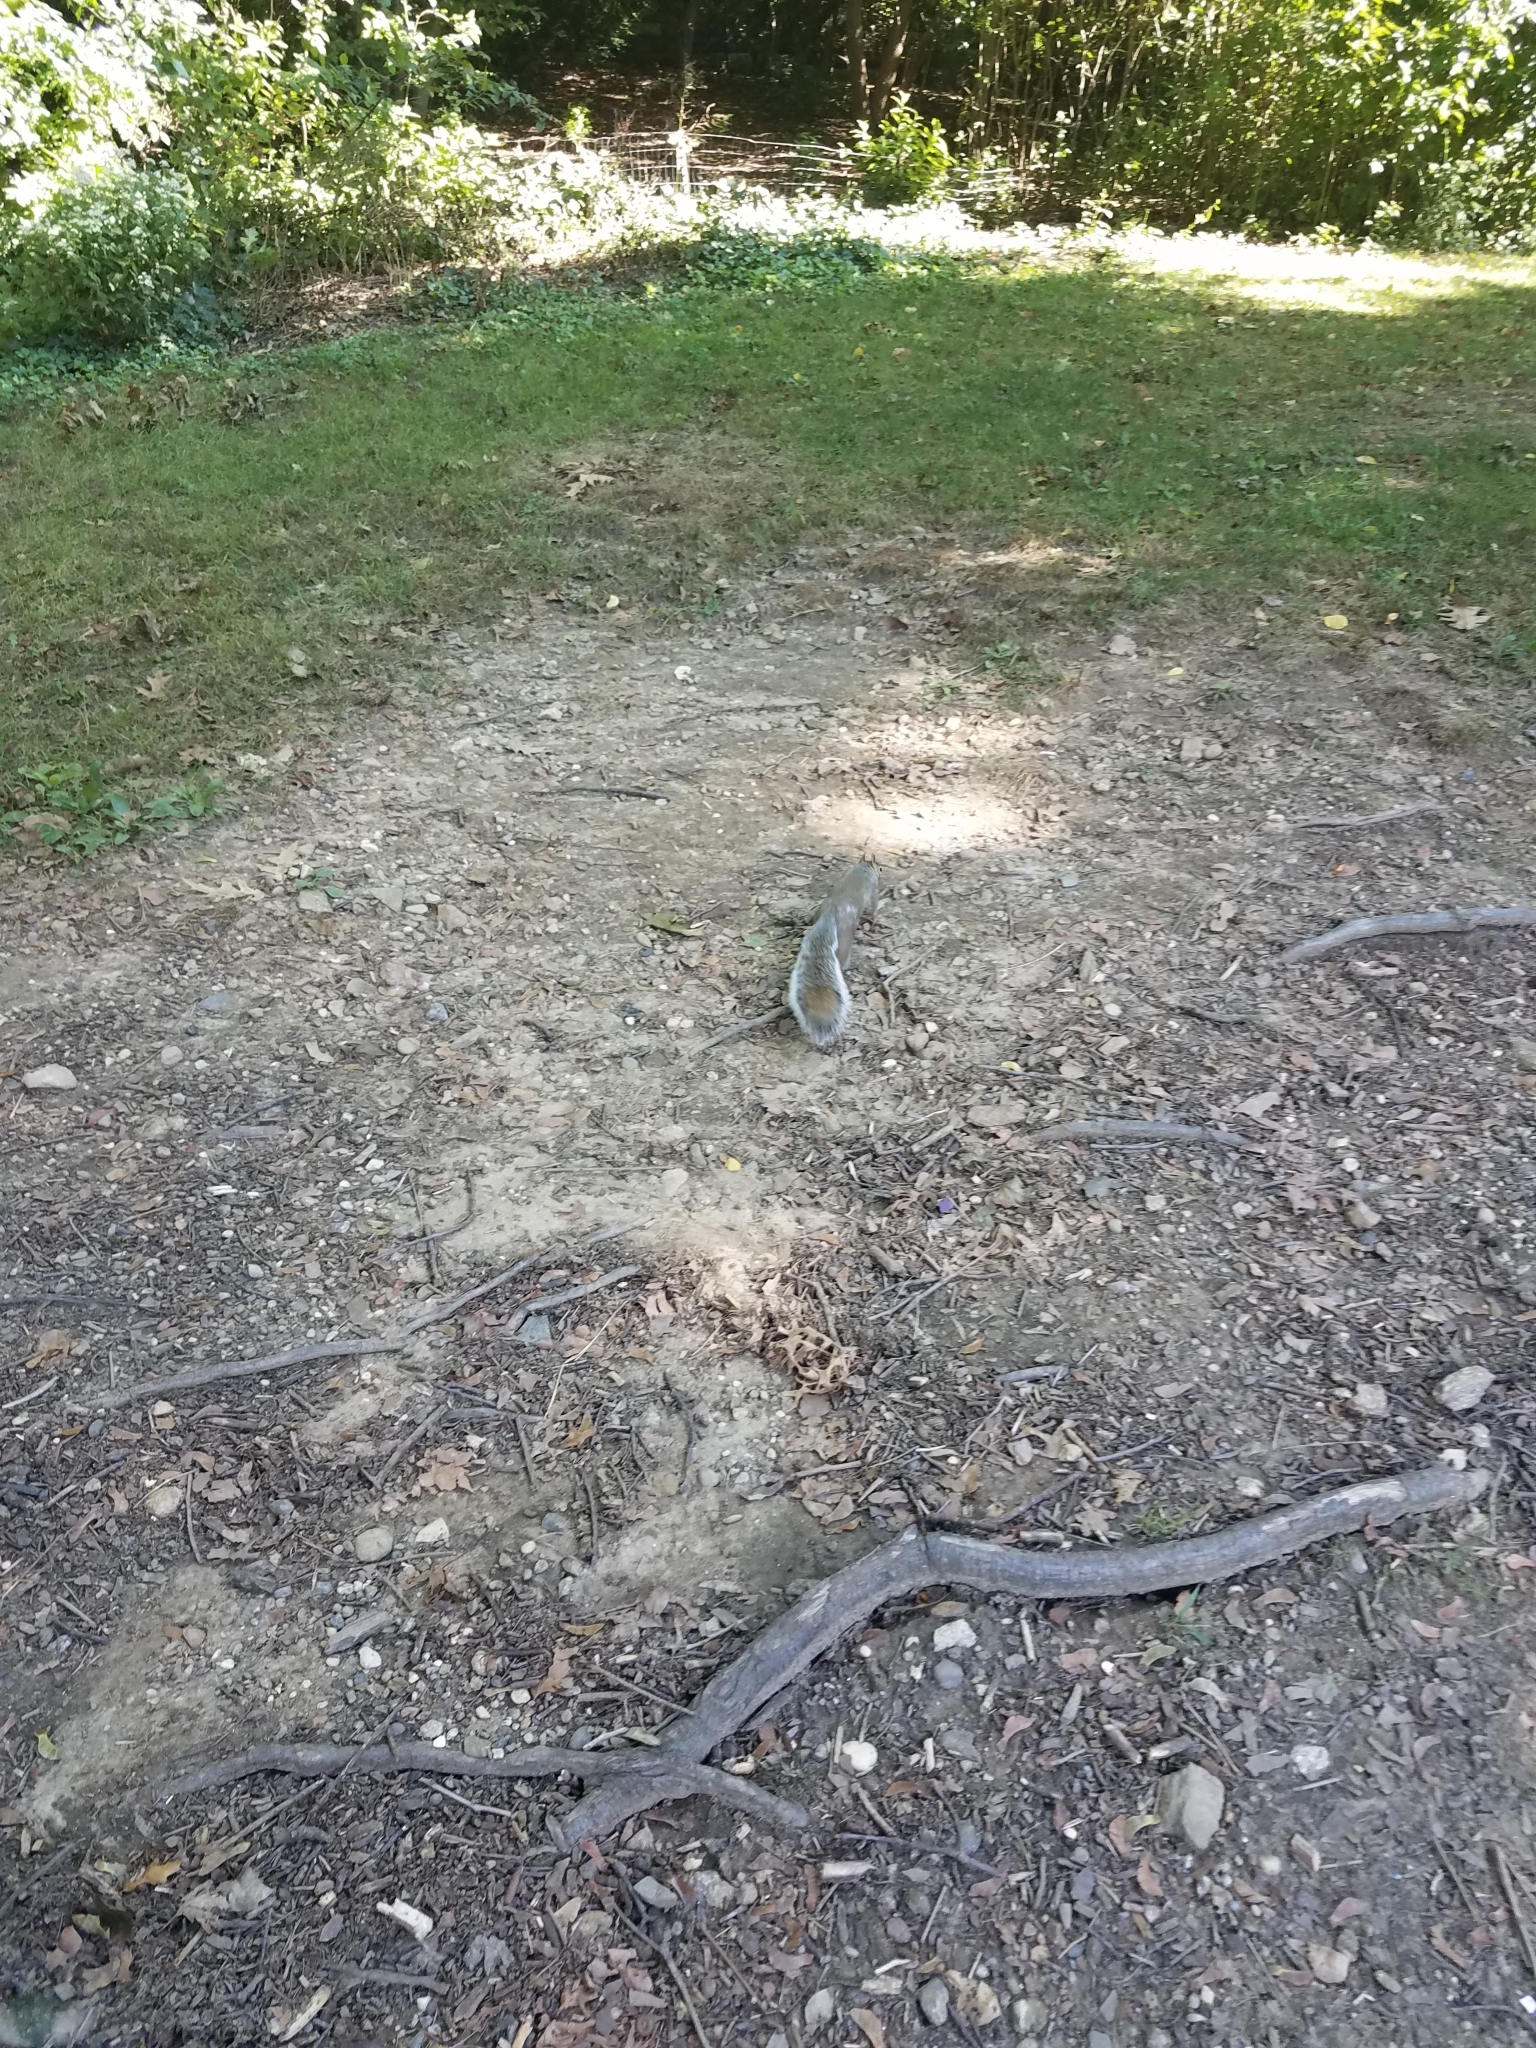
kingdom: Animalia
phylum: Chordata
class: Mammalia
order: Rodentia
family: Sciuridae
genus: Sciurus
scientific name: Sciurus carolinensis
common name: Eastern gray squirrel
